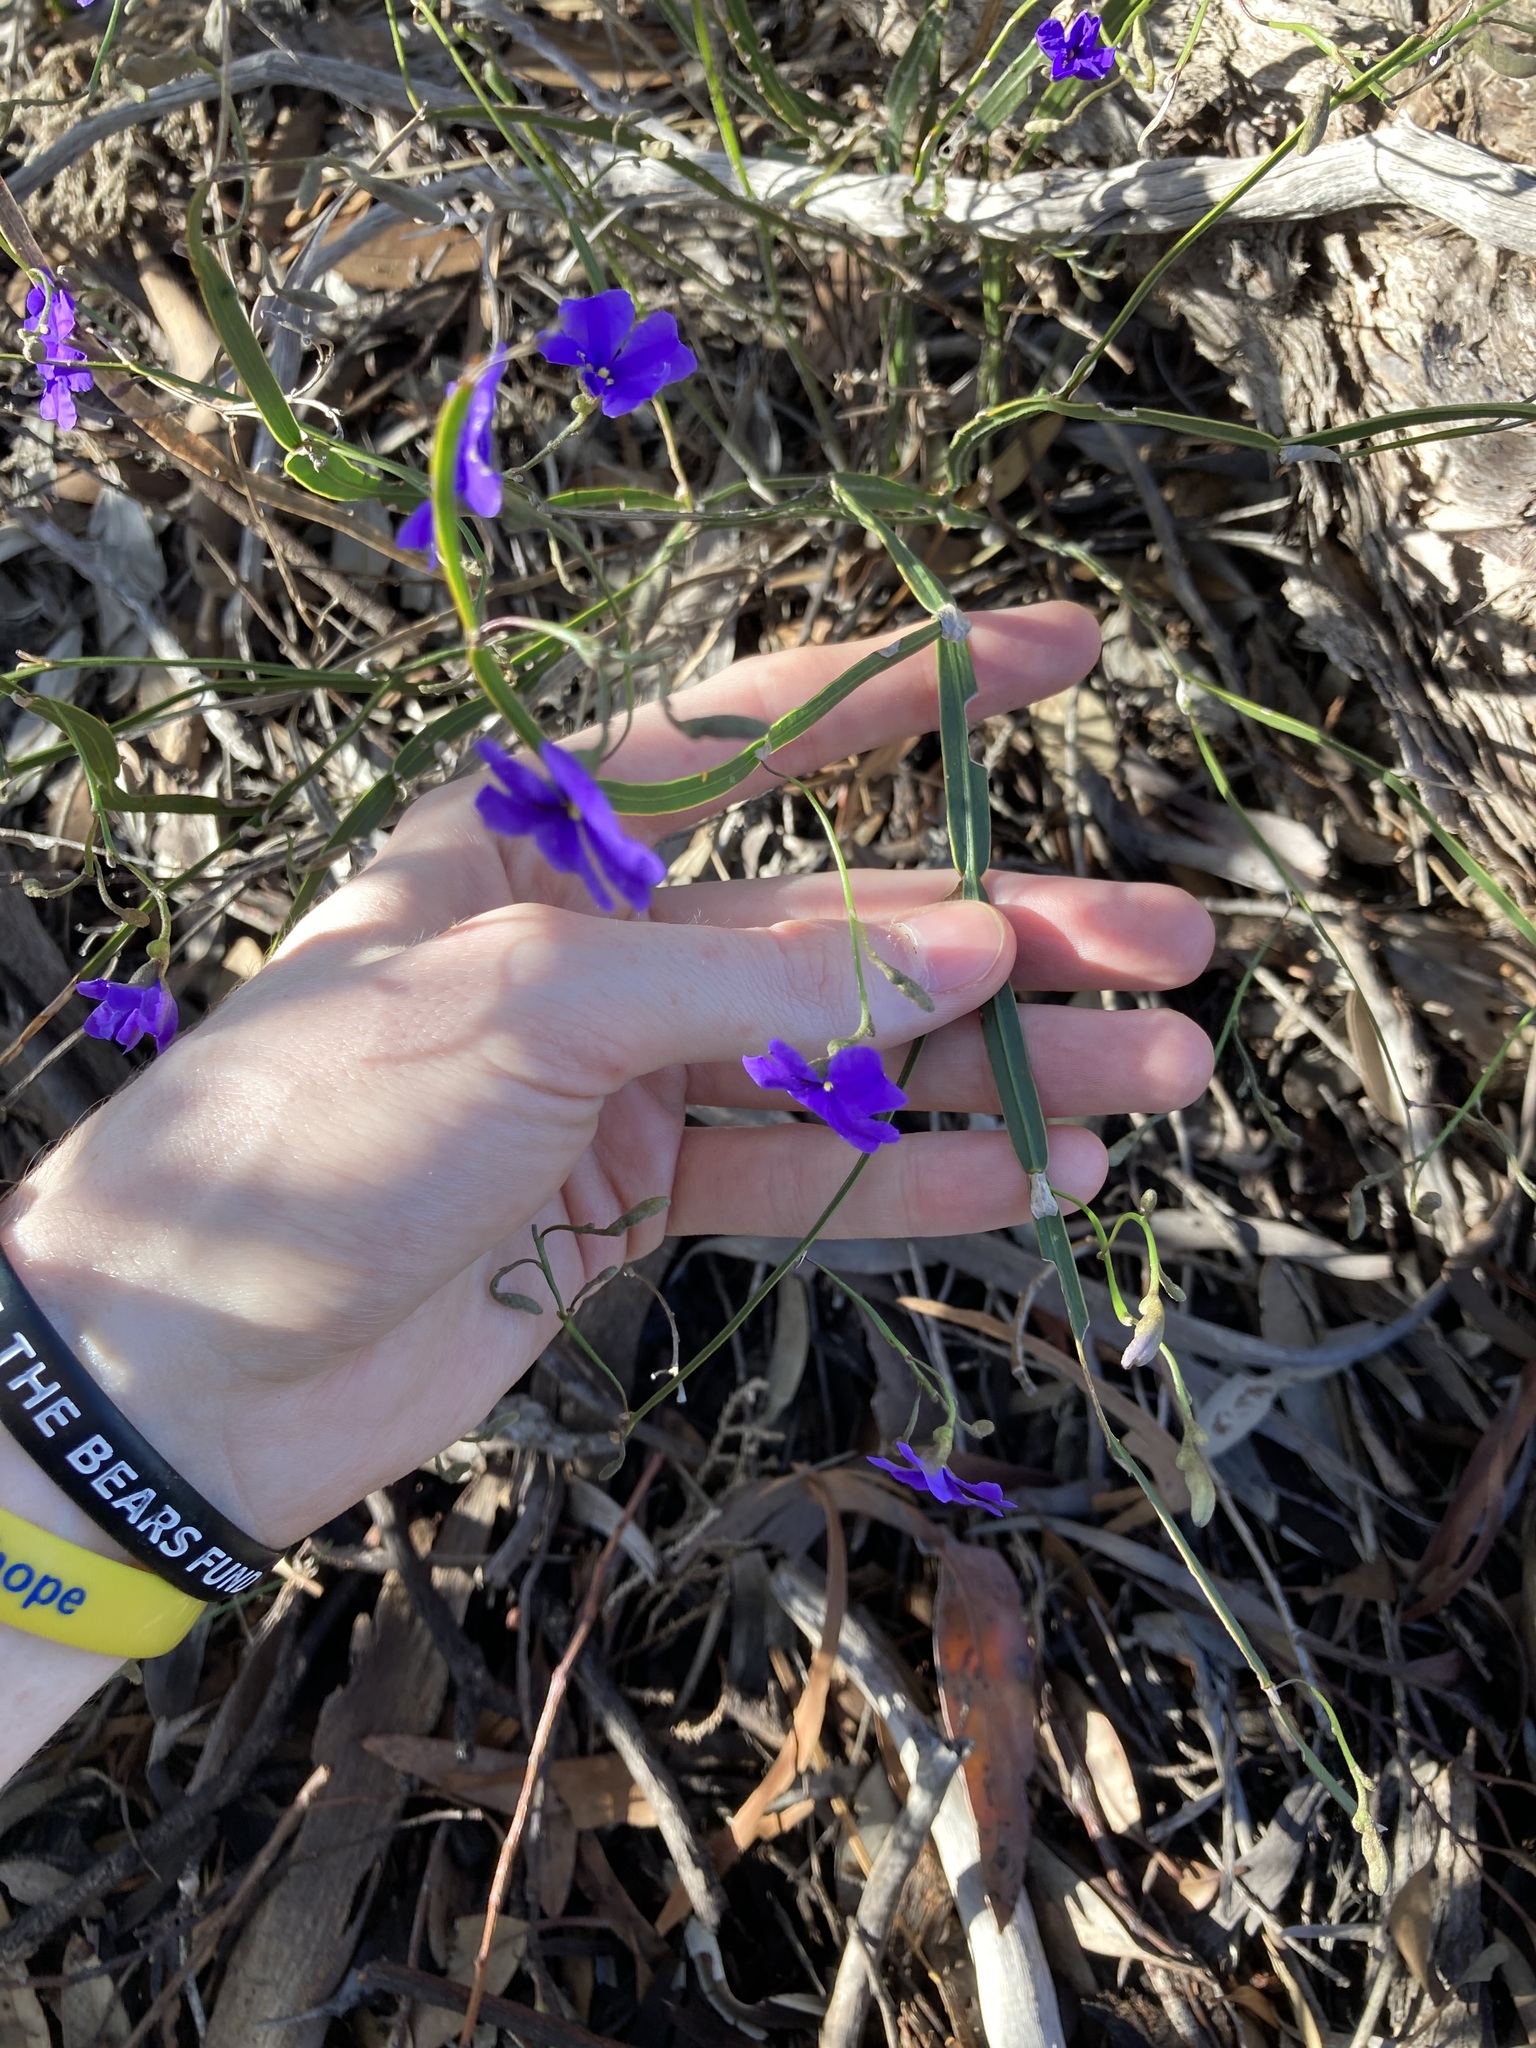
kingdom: Plantae
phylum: Tracheophyta
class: Magnoliopsida
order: Asterales
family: Goodeniaceae
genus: Dampiera
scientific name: Dampiera lindleyi
